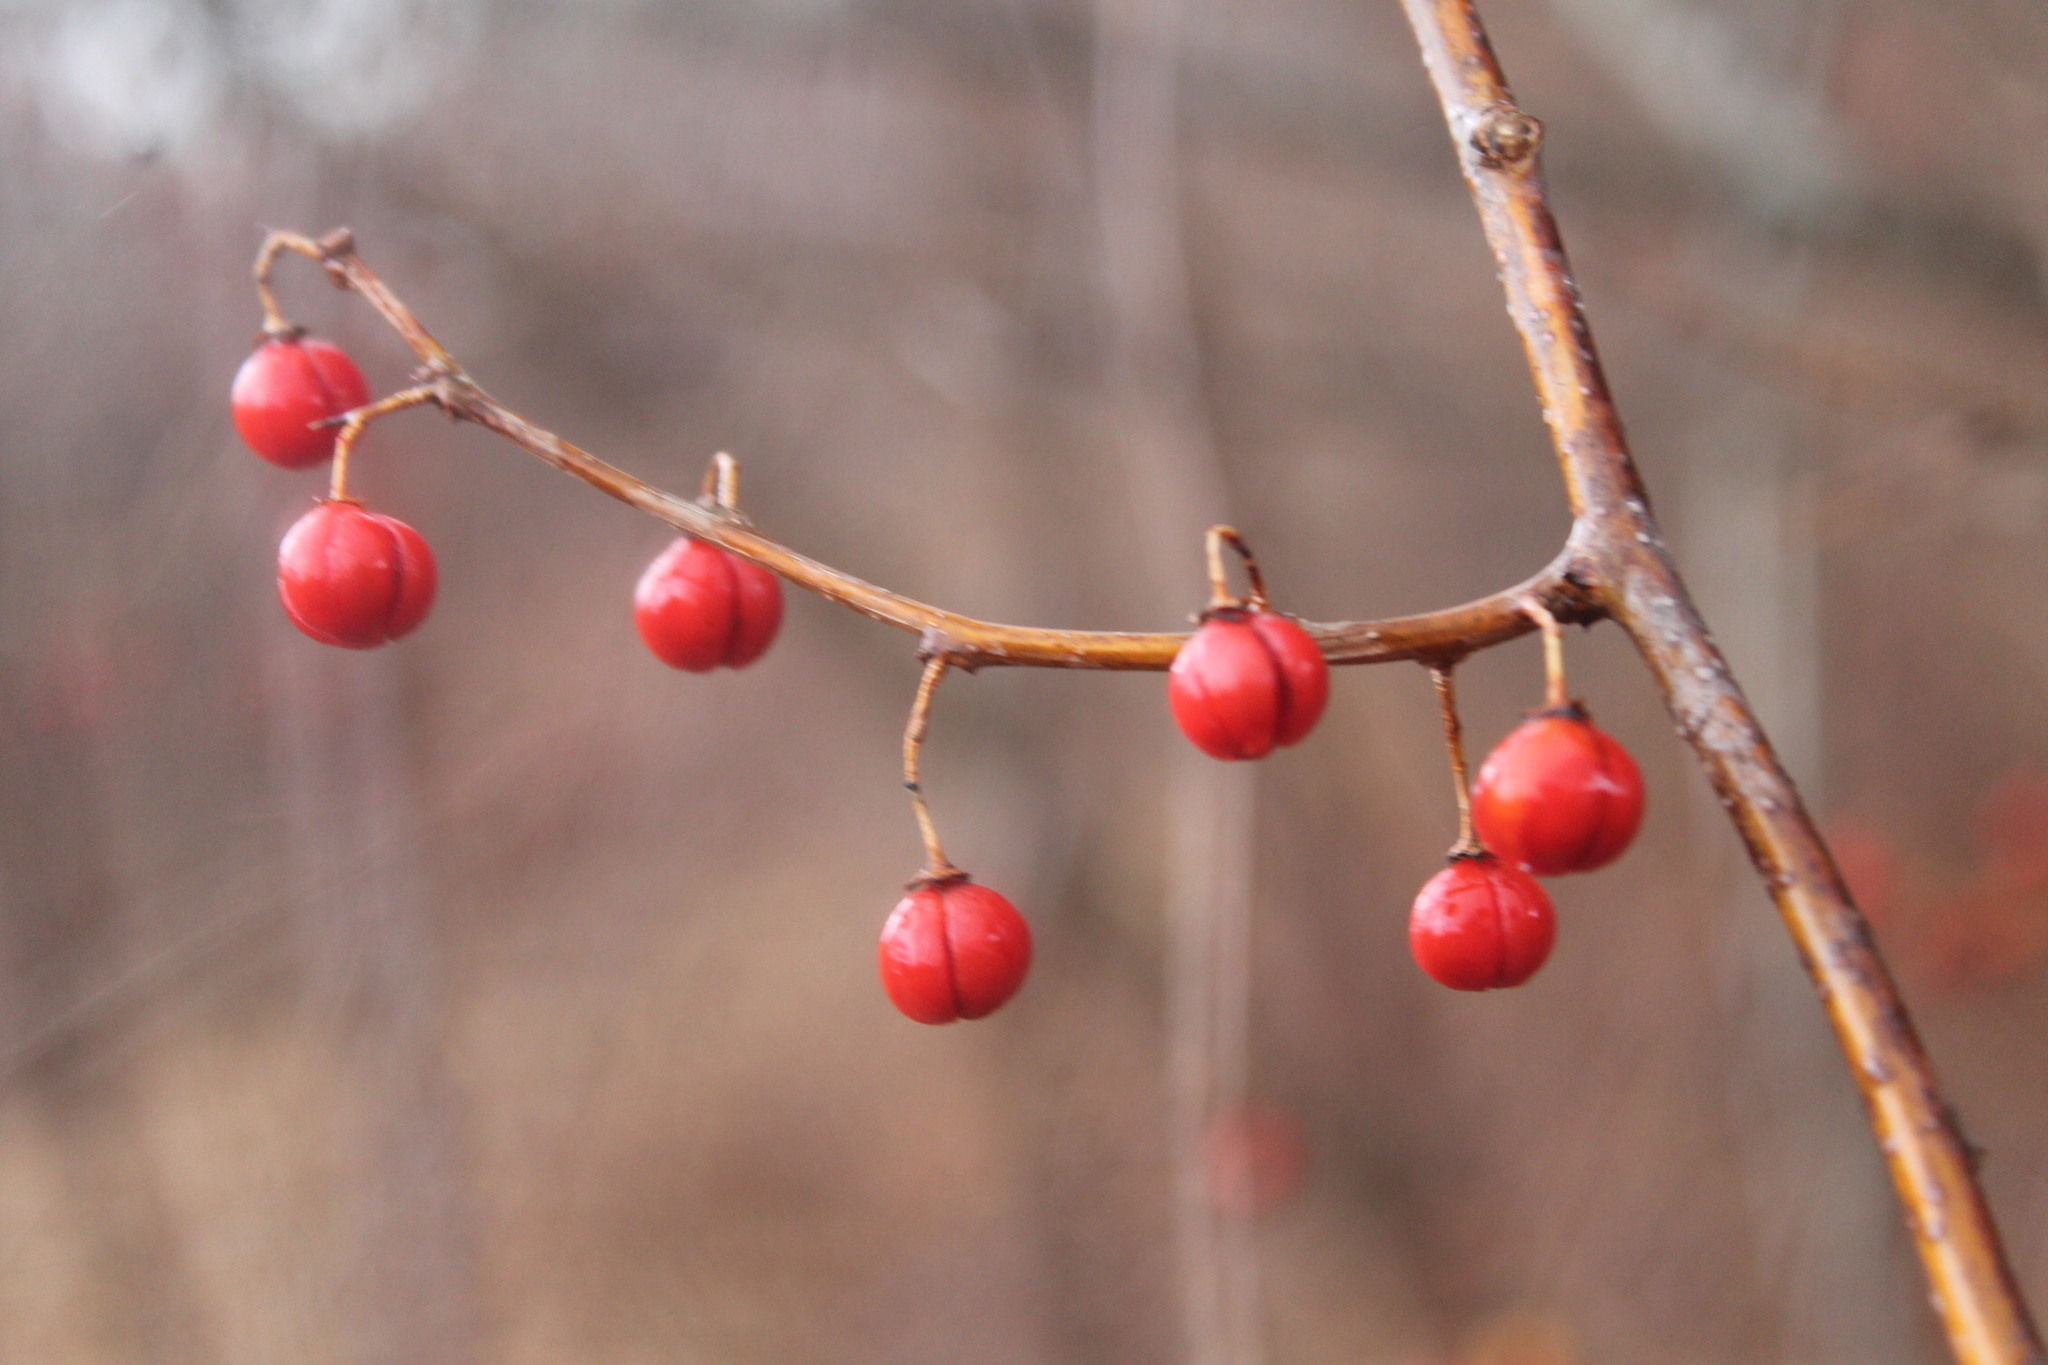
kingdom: Plantae
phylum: Tracheophyta
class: Magnoliopsida
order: Celastrales
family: Celastraceae
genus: Celastrus
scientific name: Celastrus orbiculatus
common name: Oriental bittersweet
